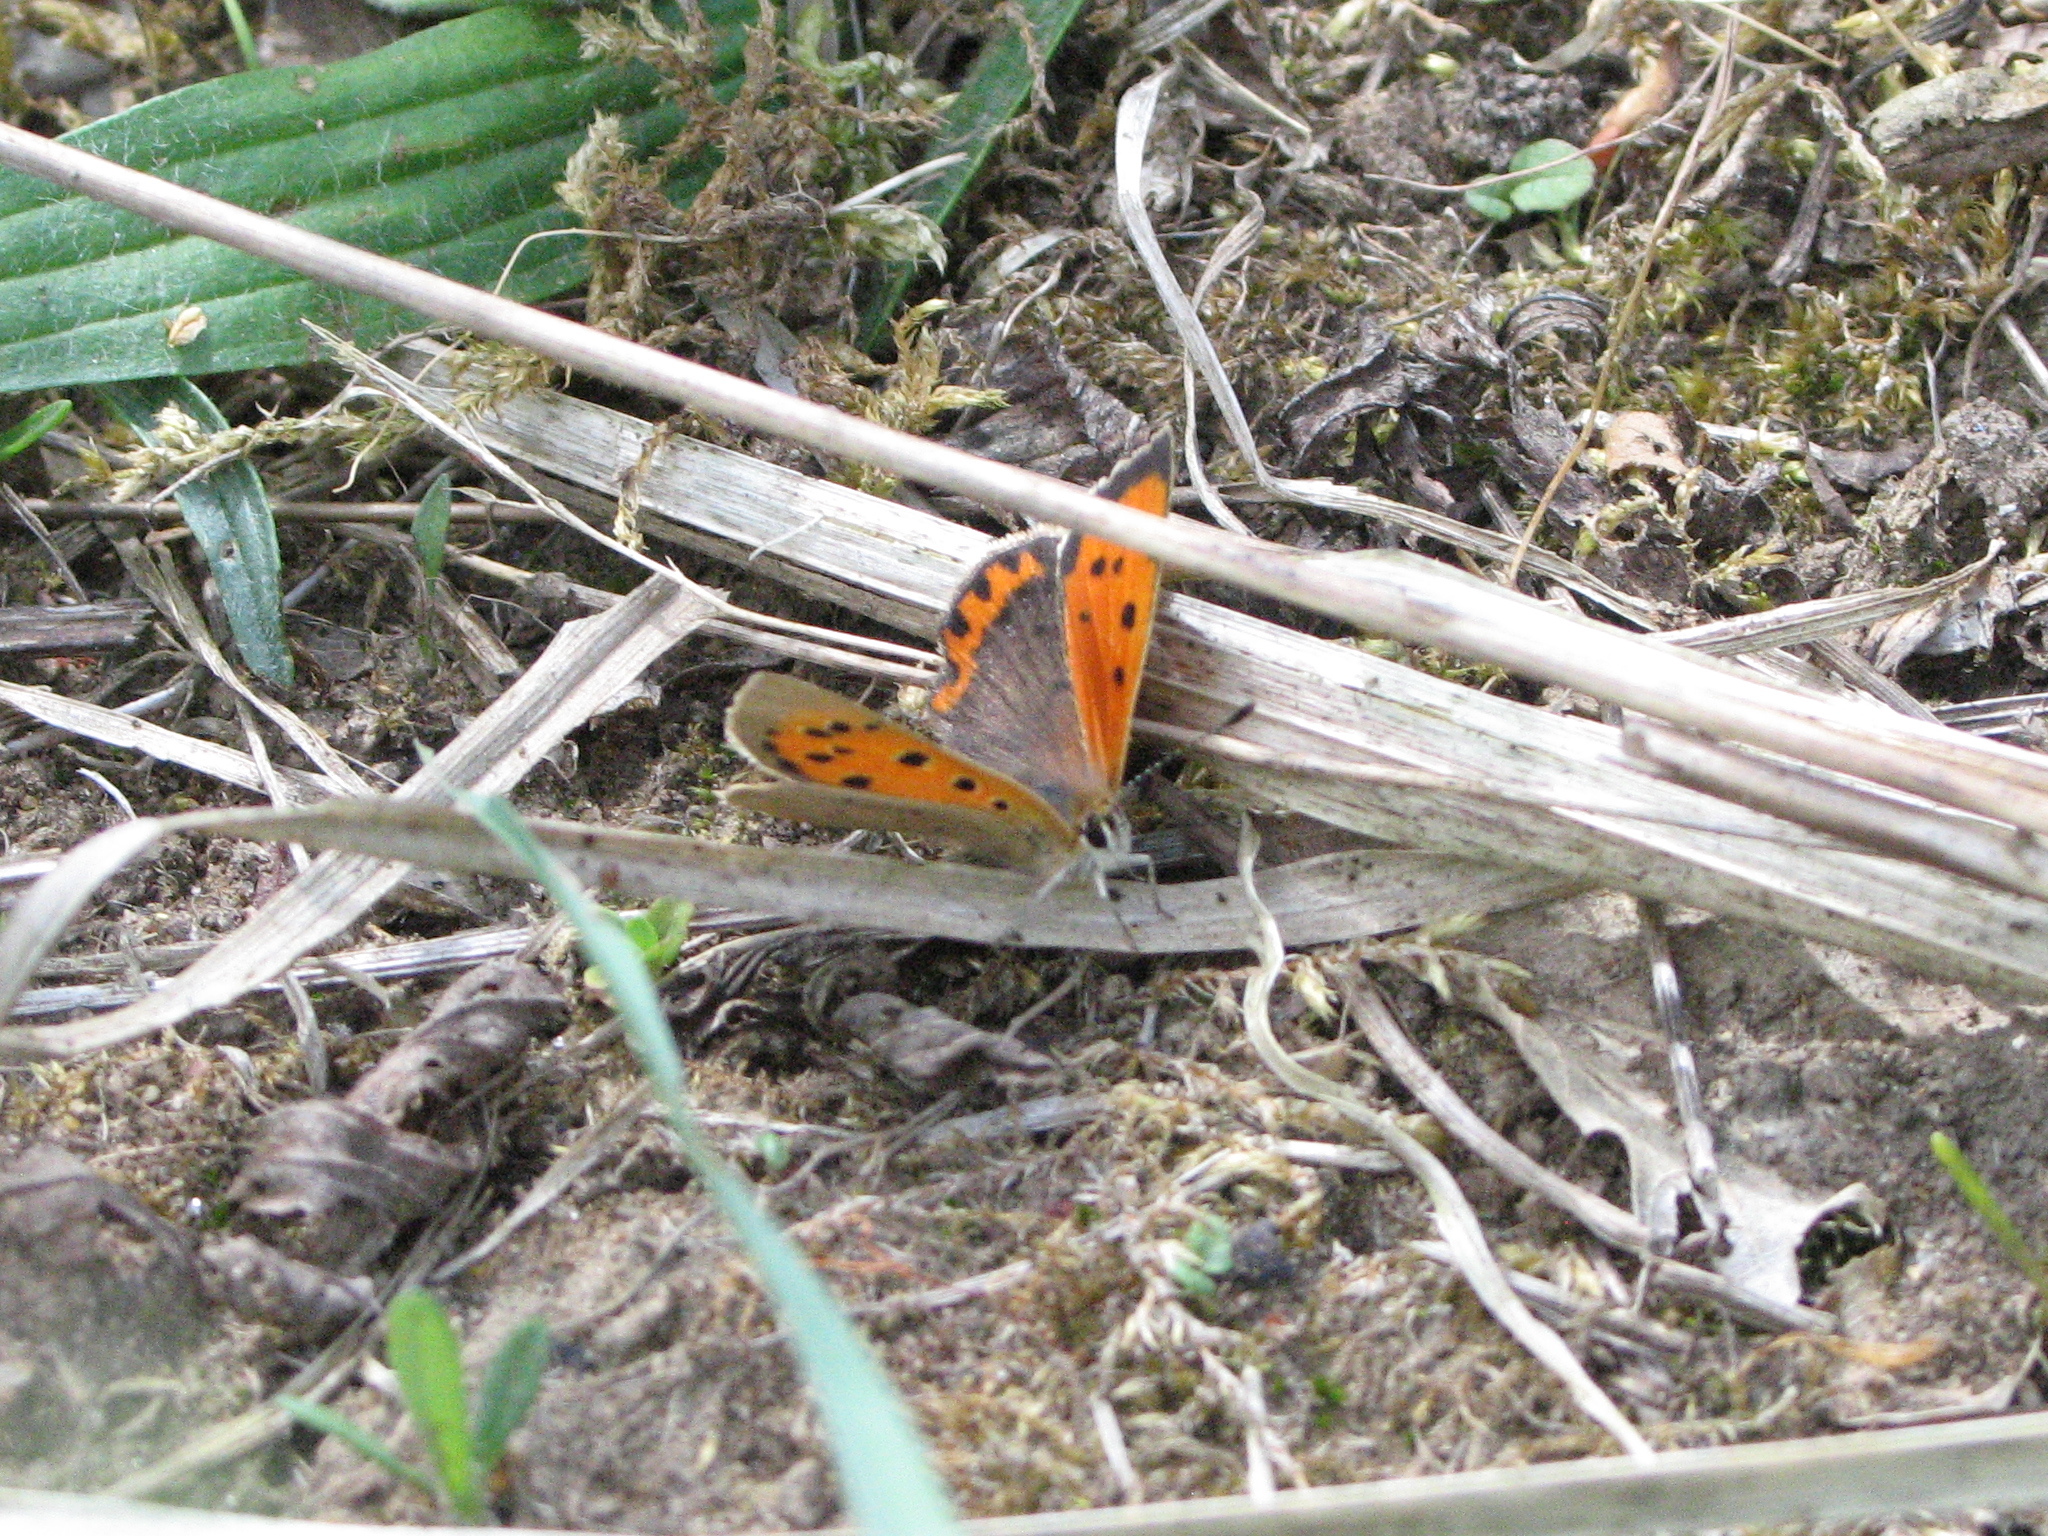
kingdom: Animalia
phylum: Arthropoda
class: Insecta
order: Lepidoptera
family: Lycaenidae
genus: Lycaena
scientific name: Lycaena phlaeas
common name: Small copper
